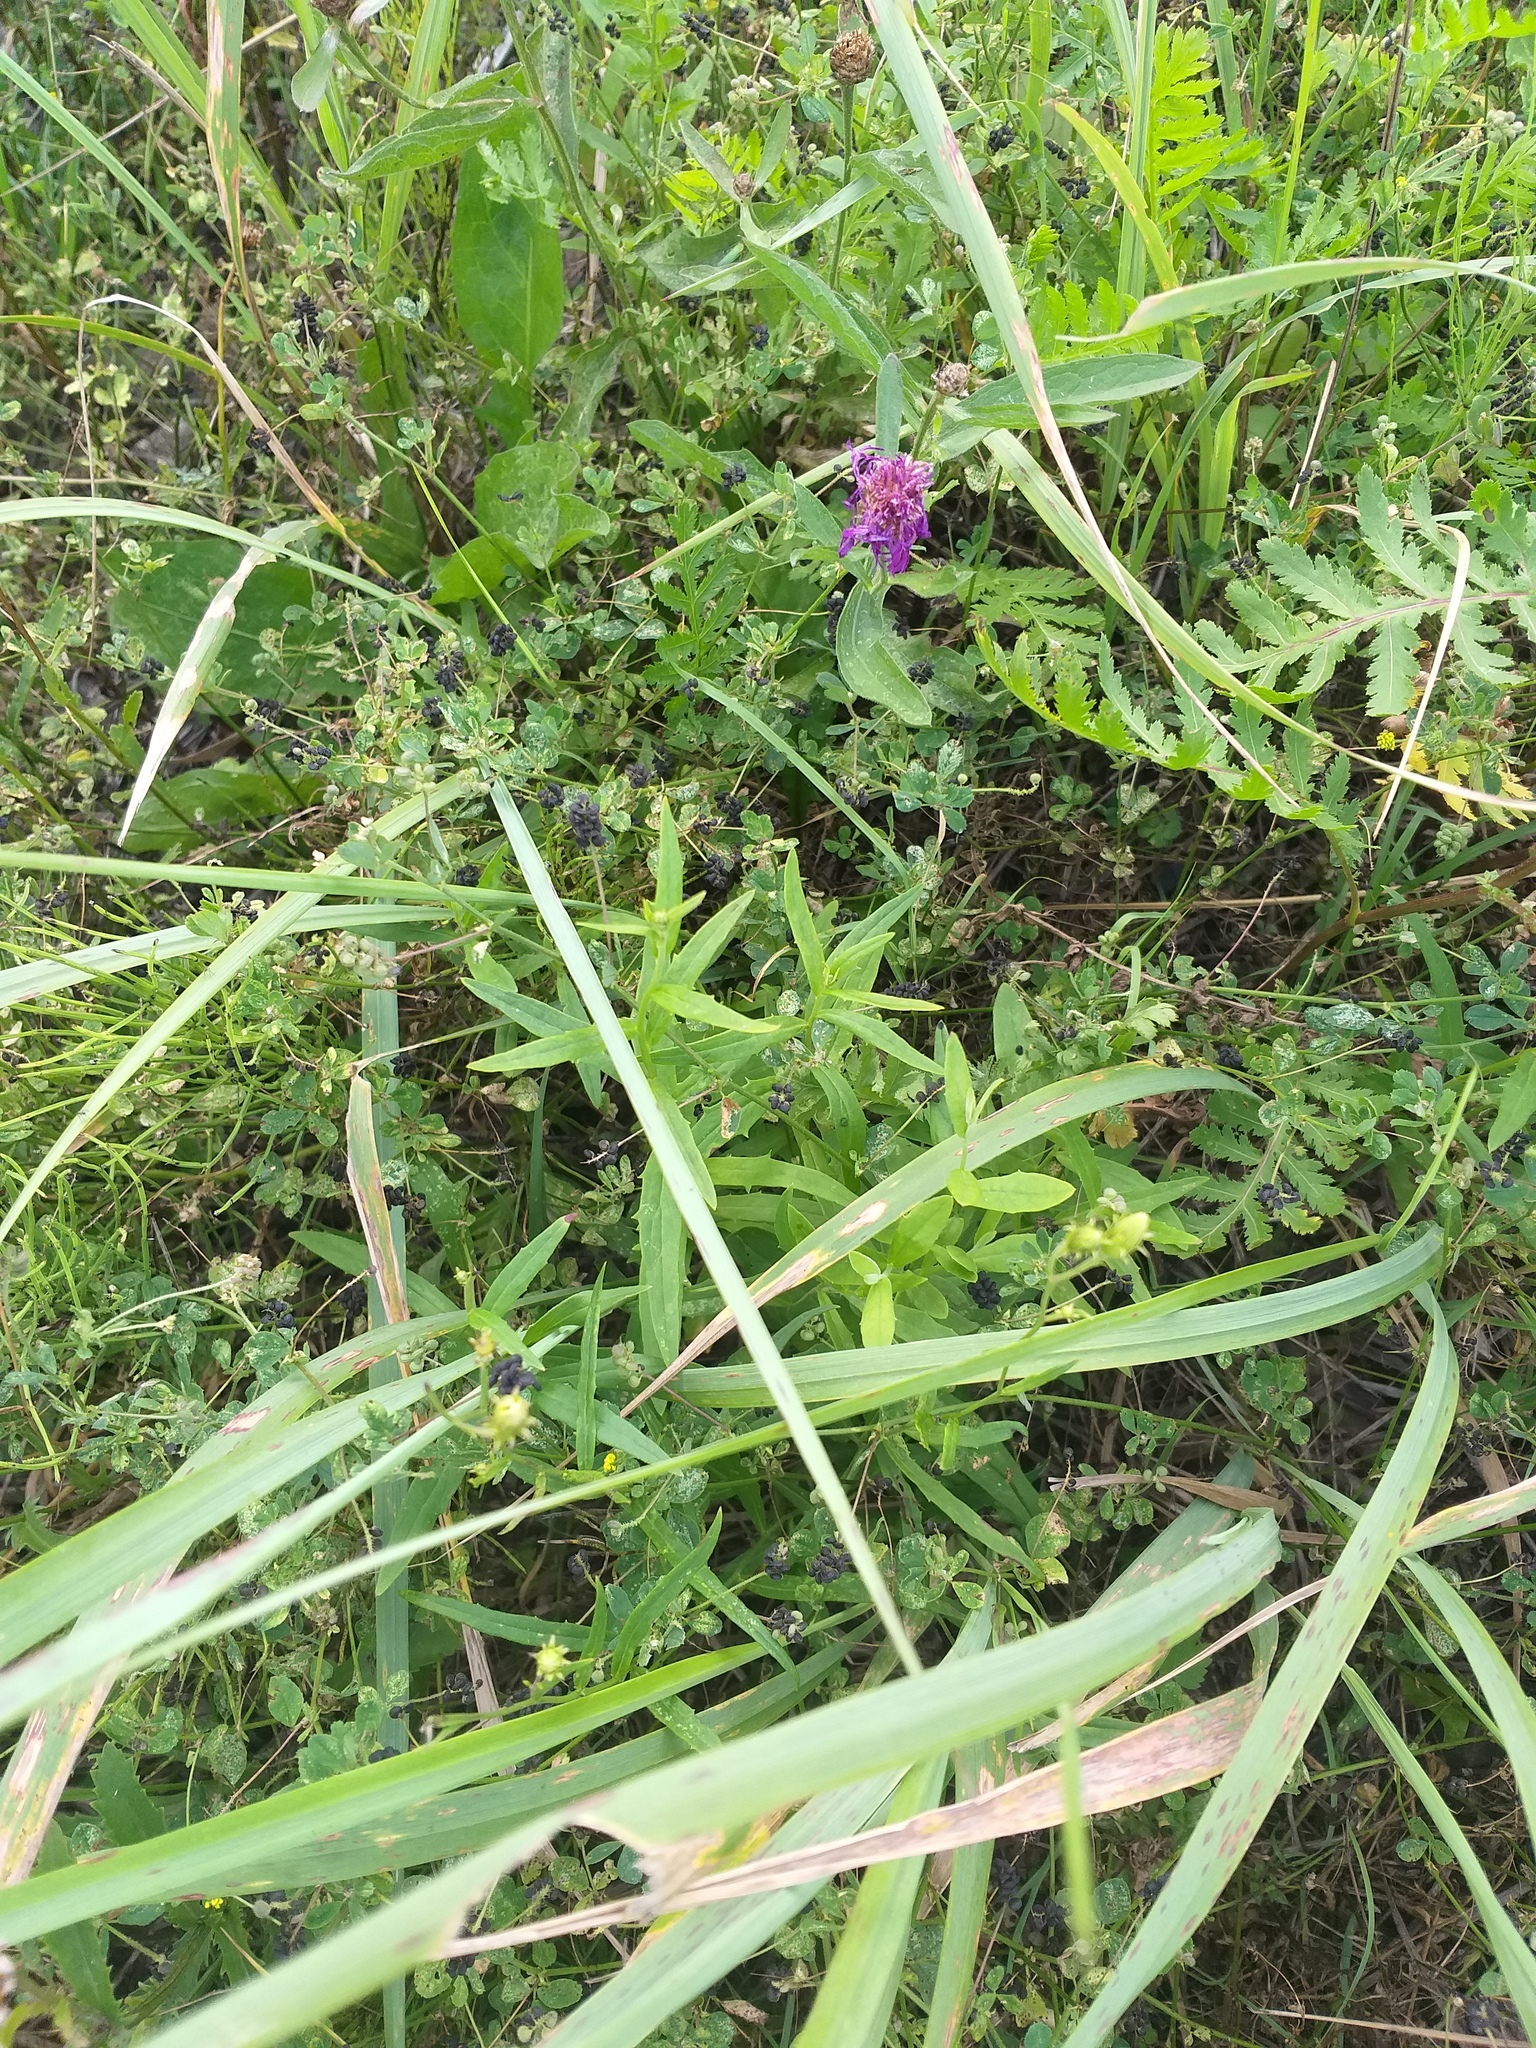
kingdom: Plantae
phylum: Tracheophyta
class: Magnoliopsida
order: Asterales
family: Asteraceae
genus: Hieracium
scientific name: Hieracium umbellatum
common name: Northern hawkweed
